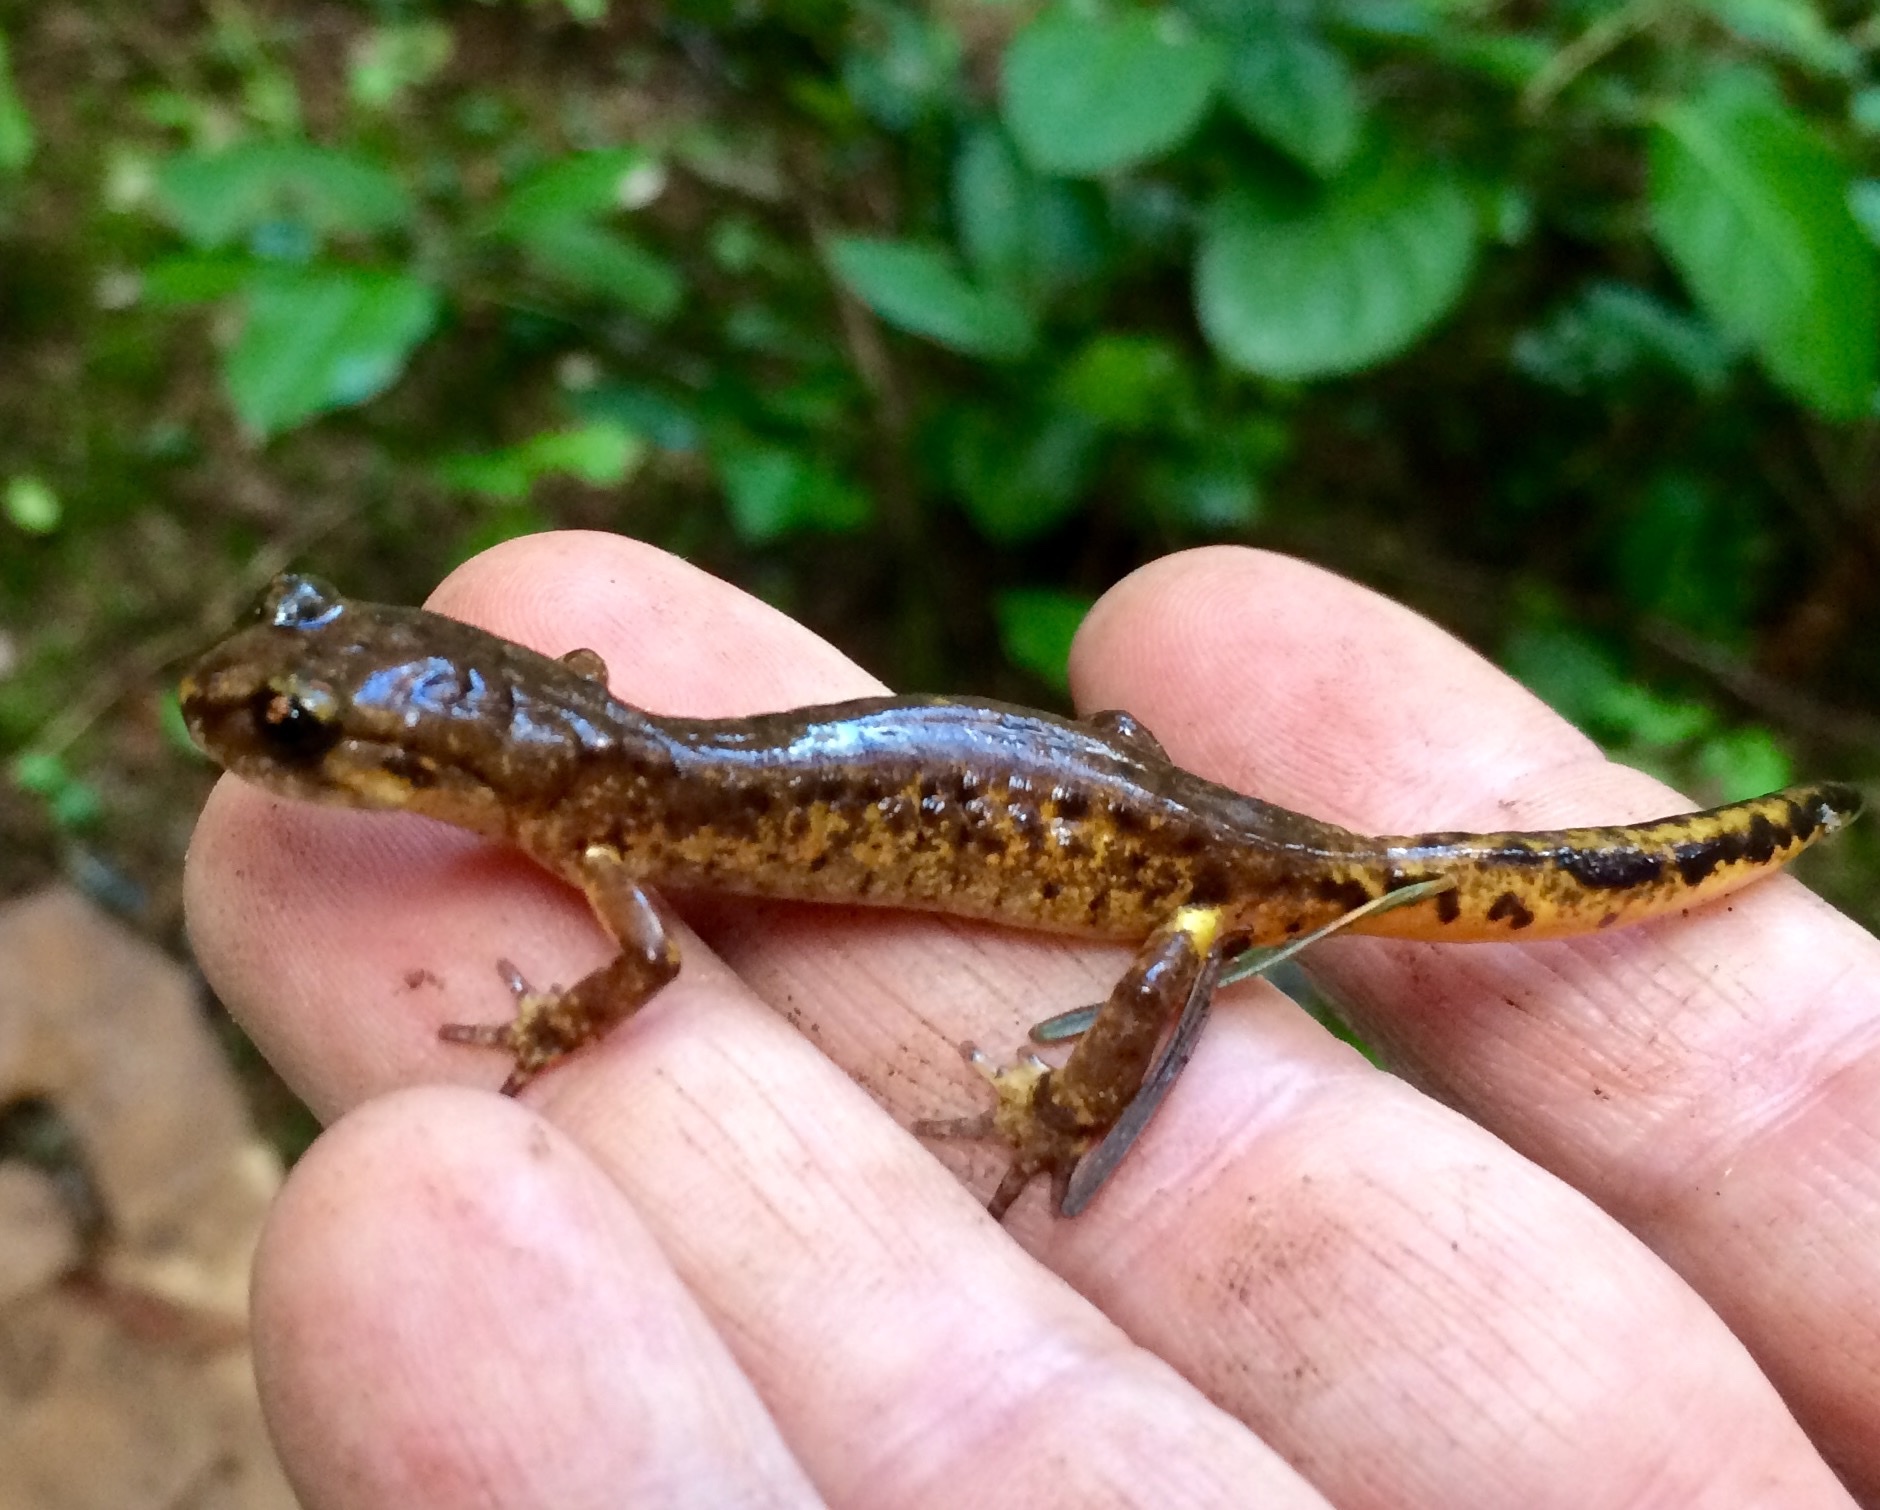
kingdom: Animalia
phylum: Chordata
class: Amphibia
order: Caudata
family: Plethodontidae
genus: Ensatina
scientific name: Ensatina eschscholtzii
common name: Ensatina
